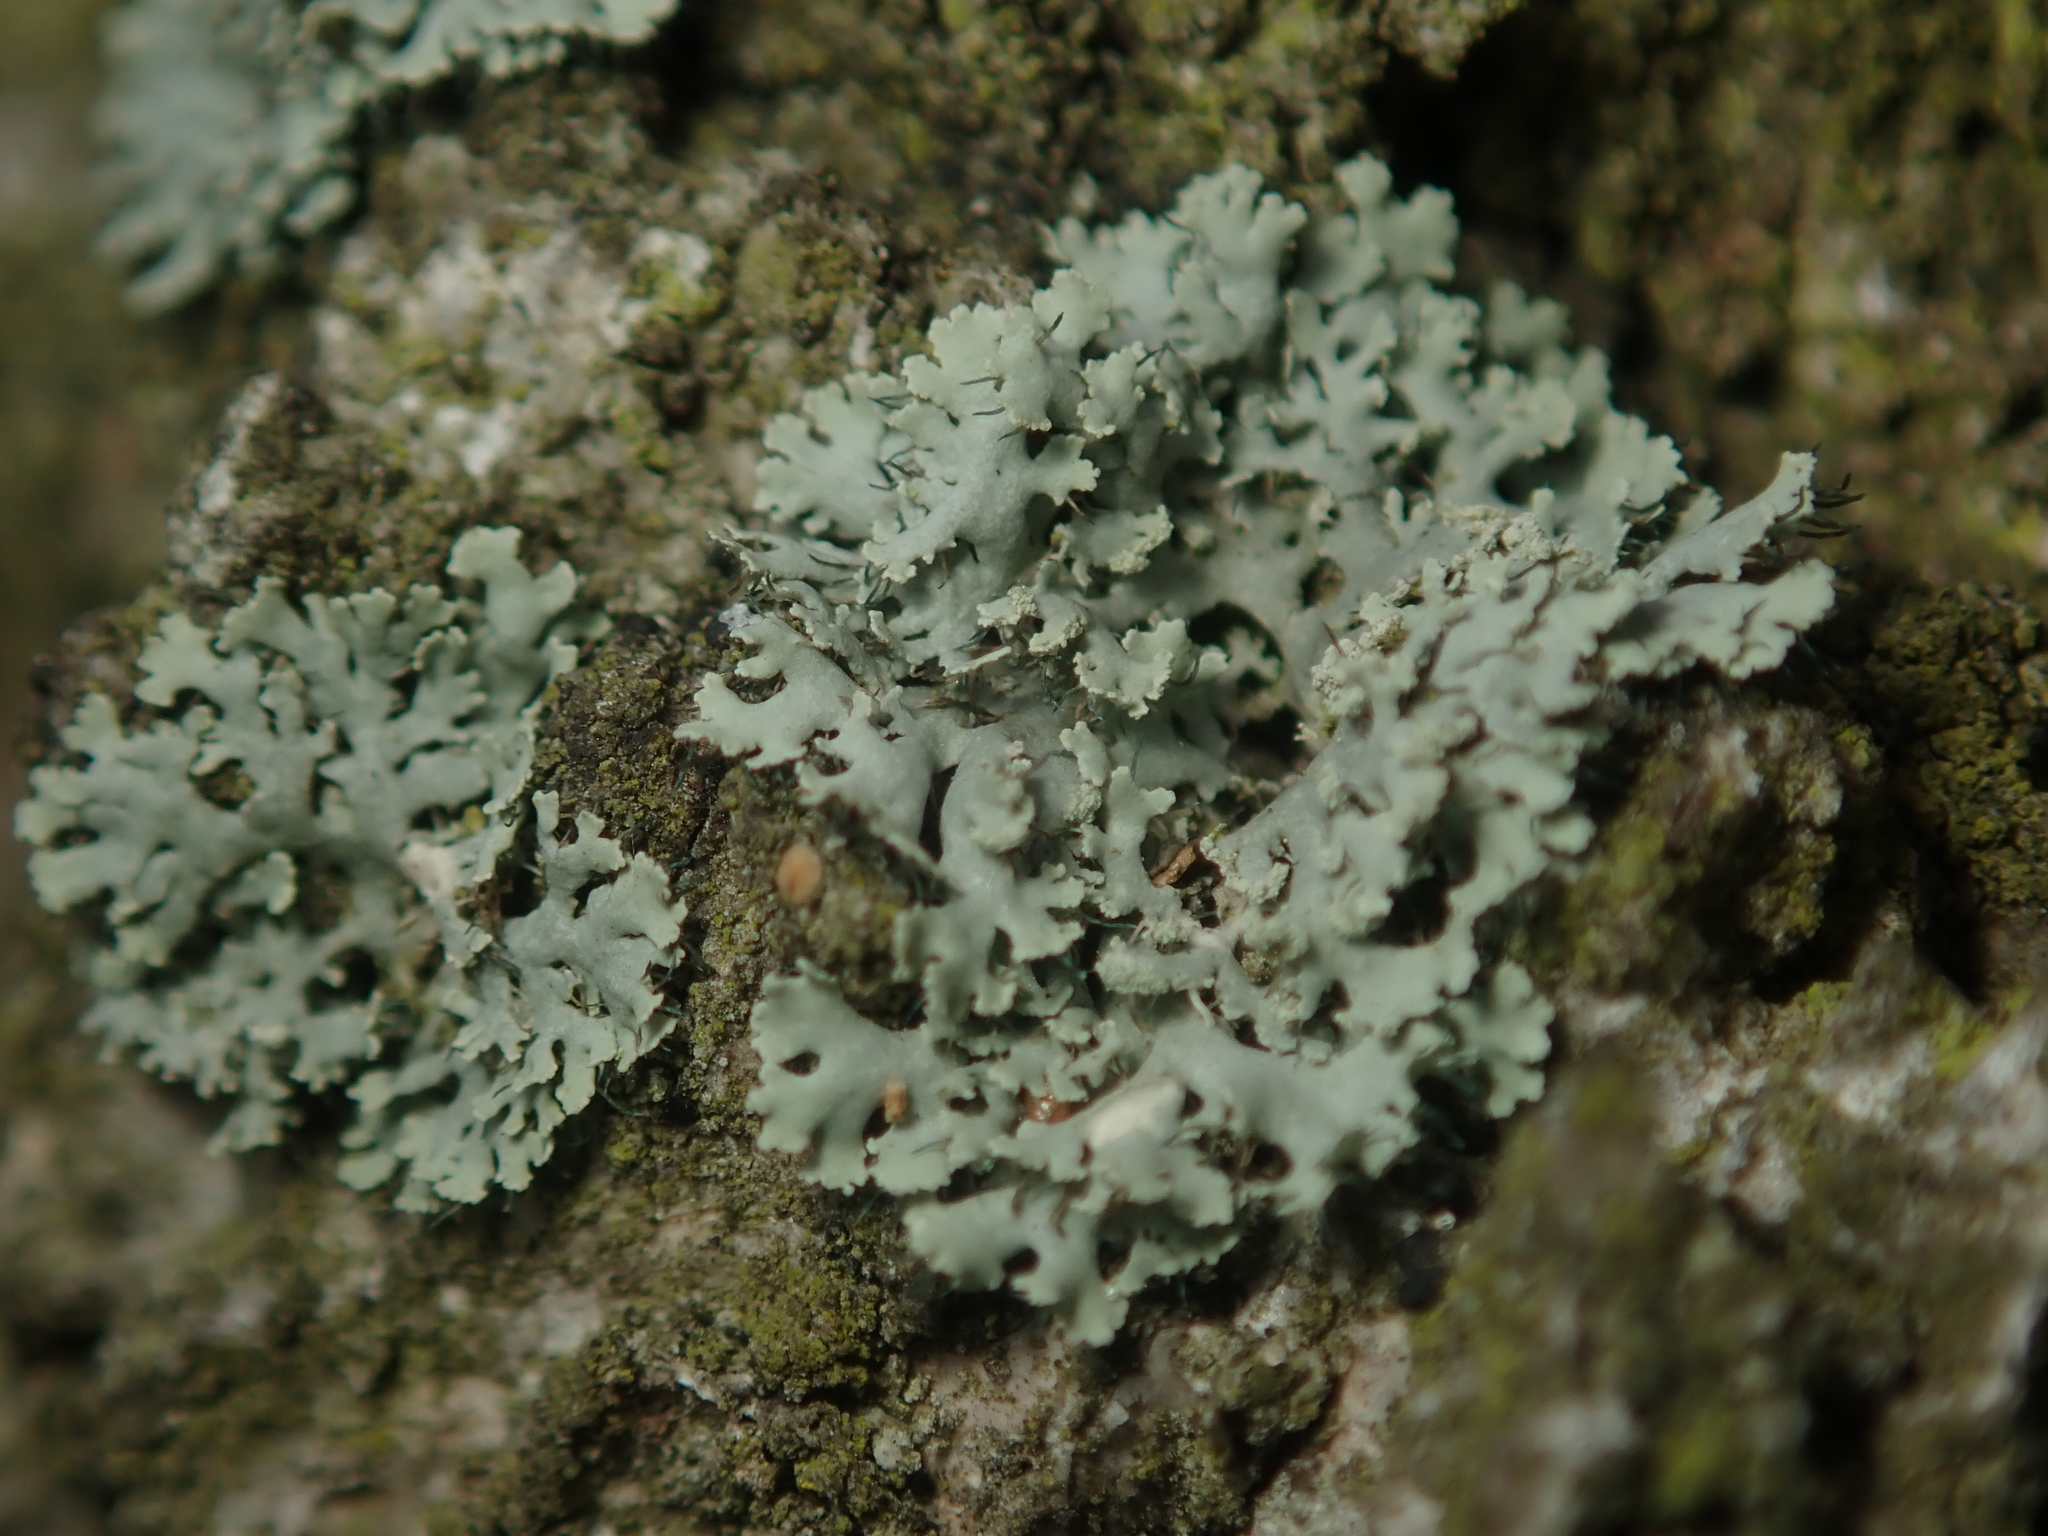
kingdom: Fungi
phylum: Ascomycota
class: Lecanoromycetes
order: Caliciales
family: Physciaceae
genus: Physcia
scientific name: Physcia tenella
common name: Fringed rosette lichen
